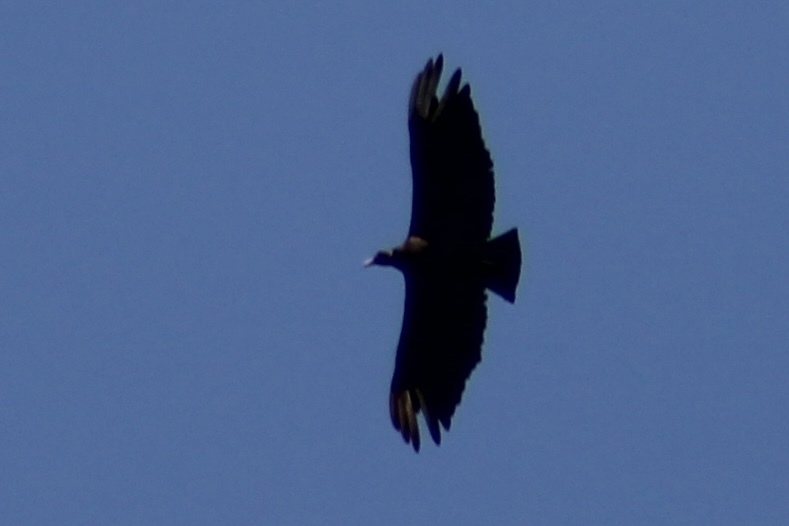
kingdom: Animalia
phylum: Chordata
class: Aves
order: Accipitriformes
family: Cathartidae
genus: Coragyps
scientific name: Coragyps atratus
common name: Black vulture
